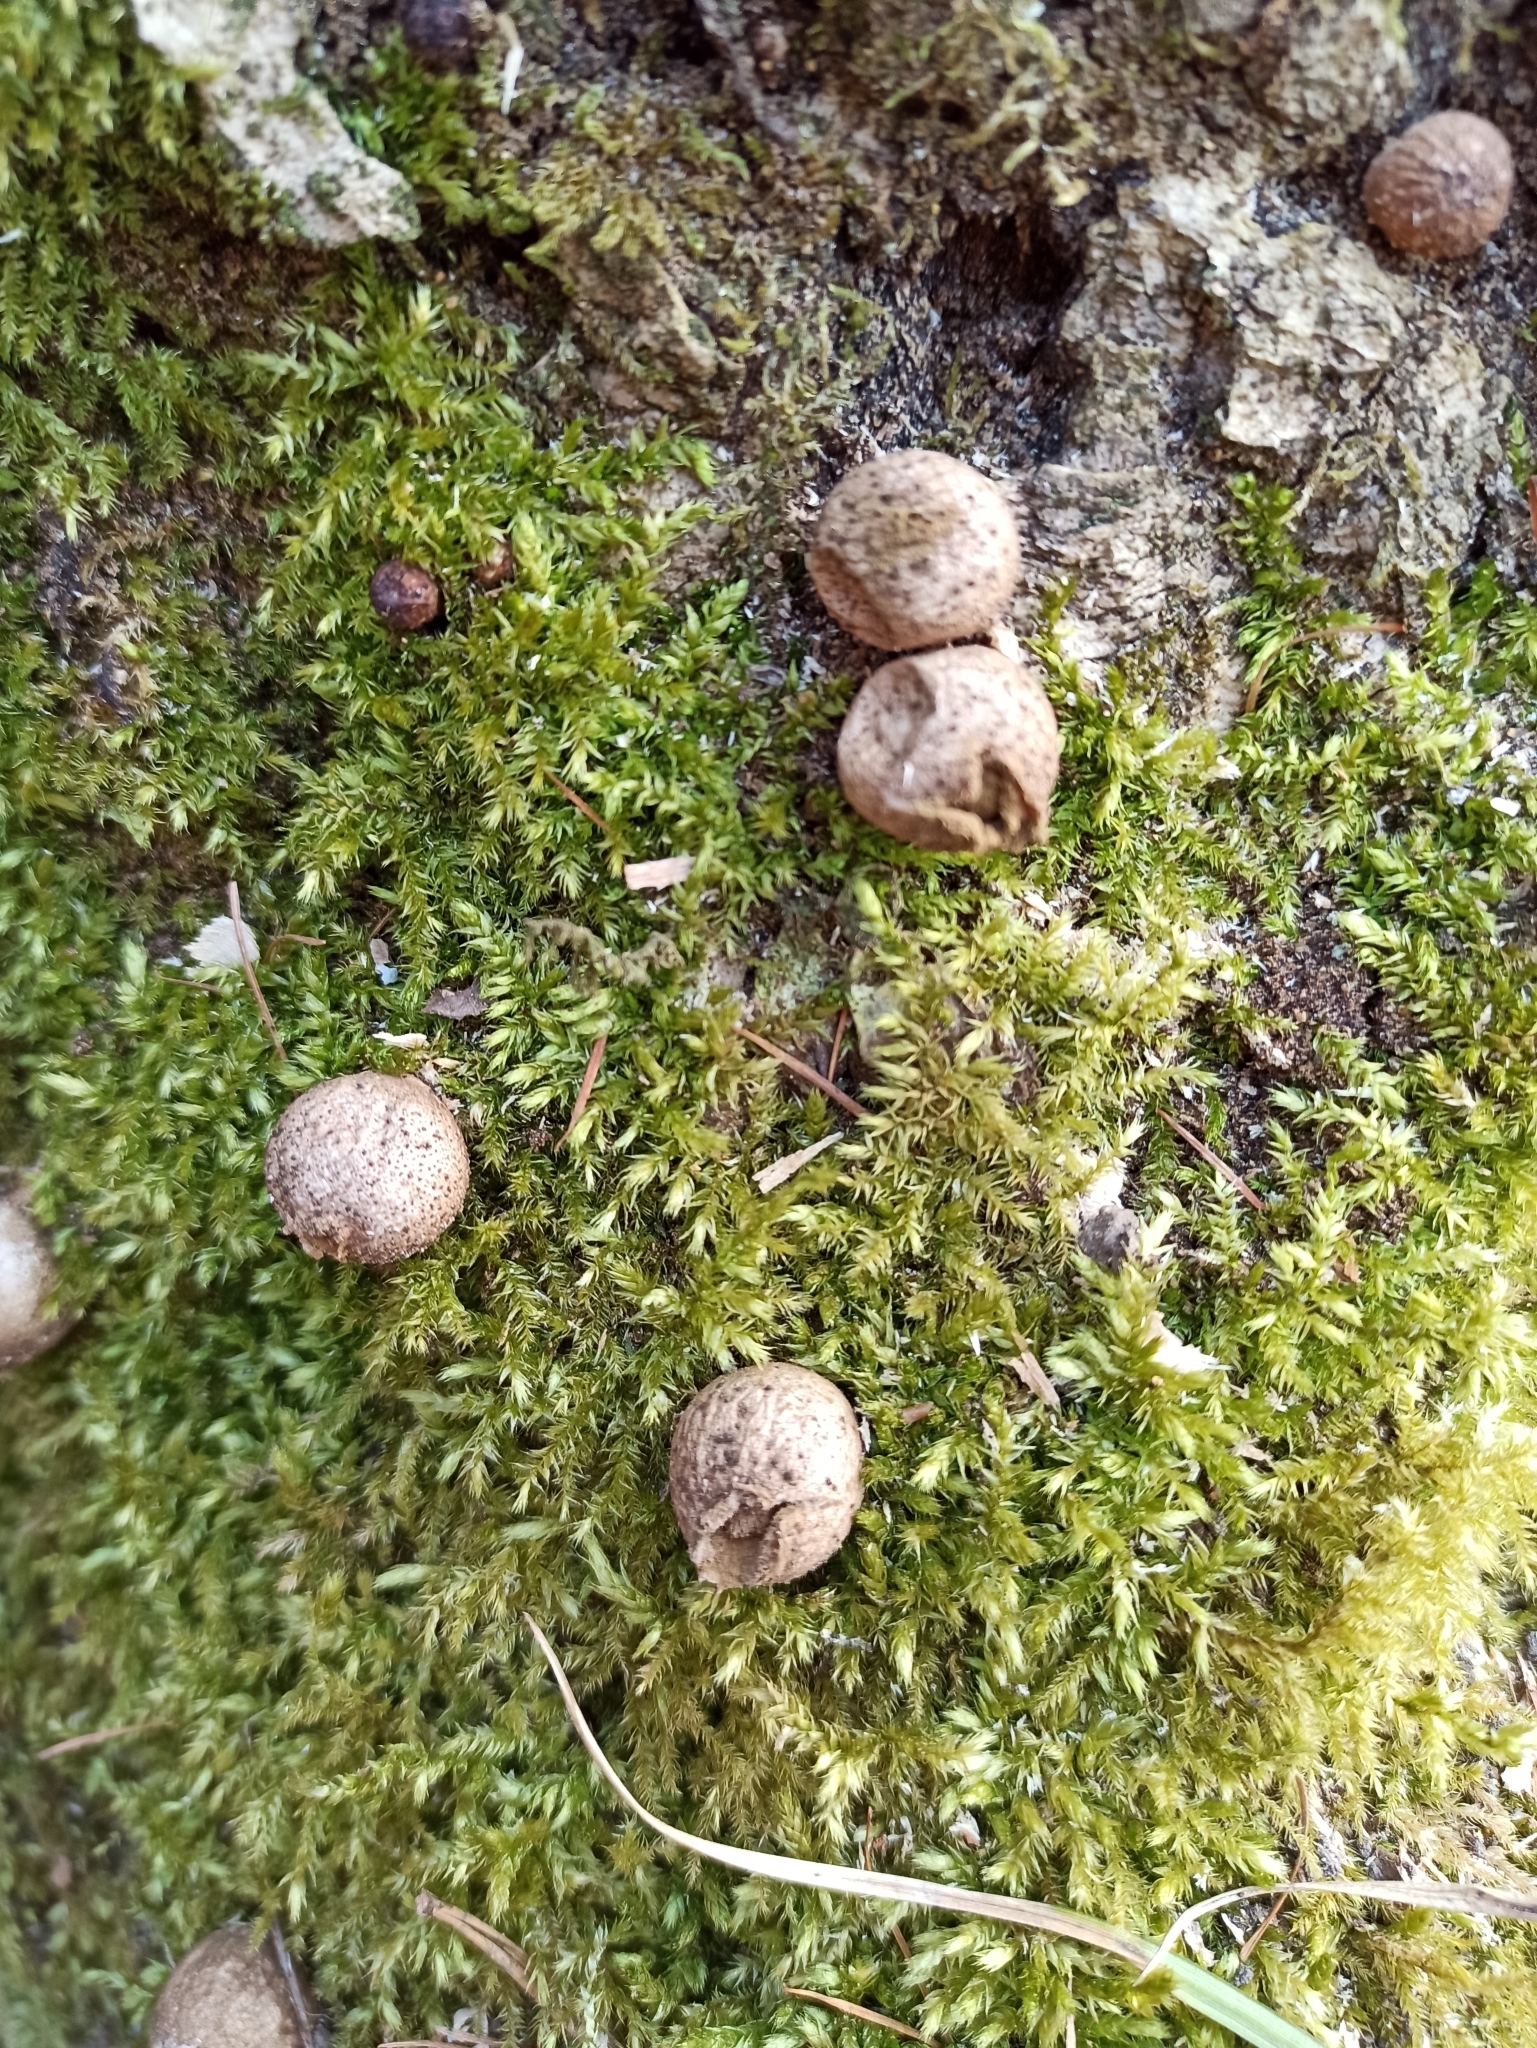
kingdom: Fungi
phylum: Basidiomycota
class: Agaricomycetes
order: Agaricales
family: Lycoperdaceae
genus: Apioperdon
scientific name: Apioperdon pyriforme
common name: Pear-shaped puffball
